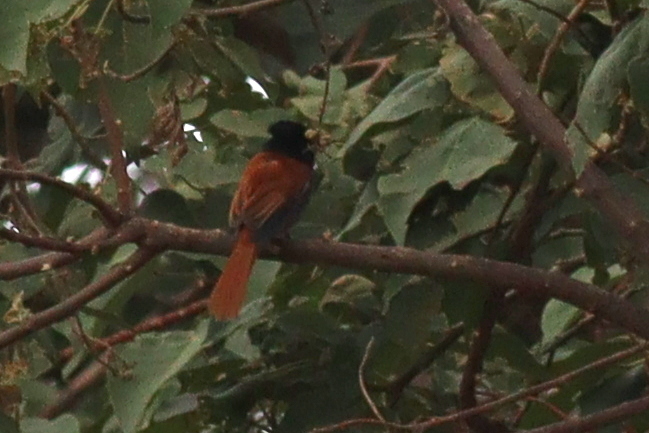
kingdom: Animalia
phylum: Chordata
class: Aves
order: Passeriformes
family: Monarchidae
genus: Terpsiphone
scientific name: Terpsiphone viridis
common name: African paradise flycatcher
